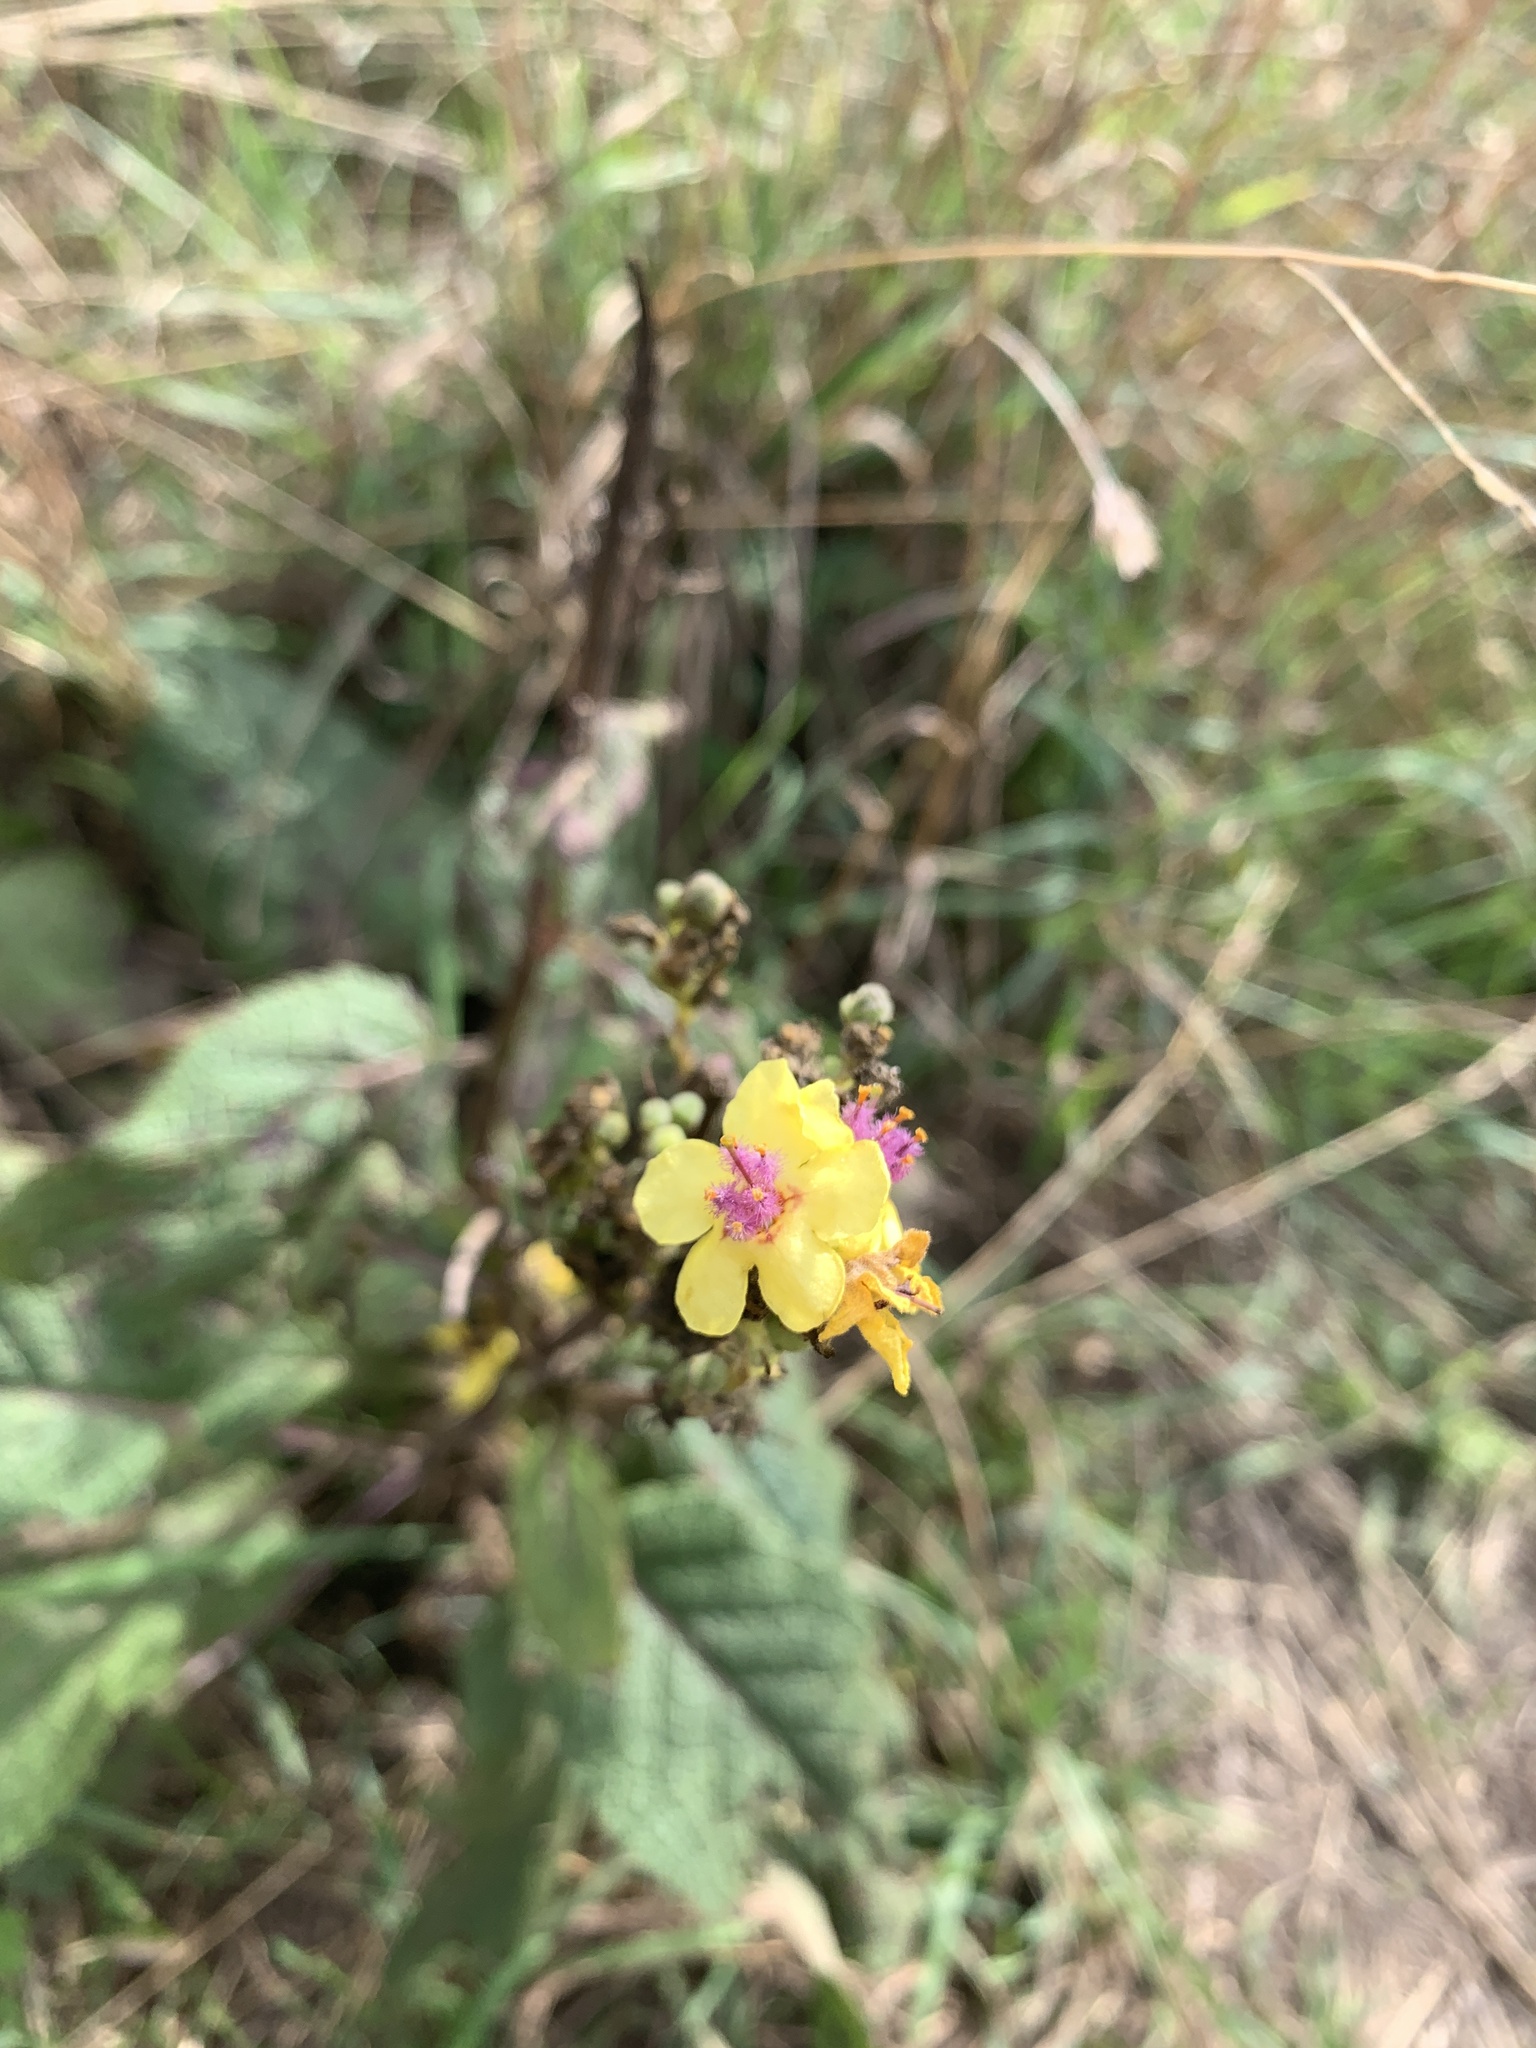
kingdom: Plantae
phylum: Tracheophyta
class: Magnoliopsida
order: Lamiales
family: Scrophulariaceae
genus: Verbascum
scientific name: Verbascum nigrum
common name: Dark mullein
